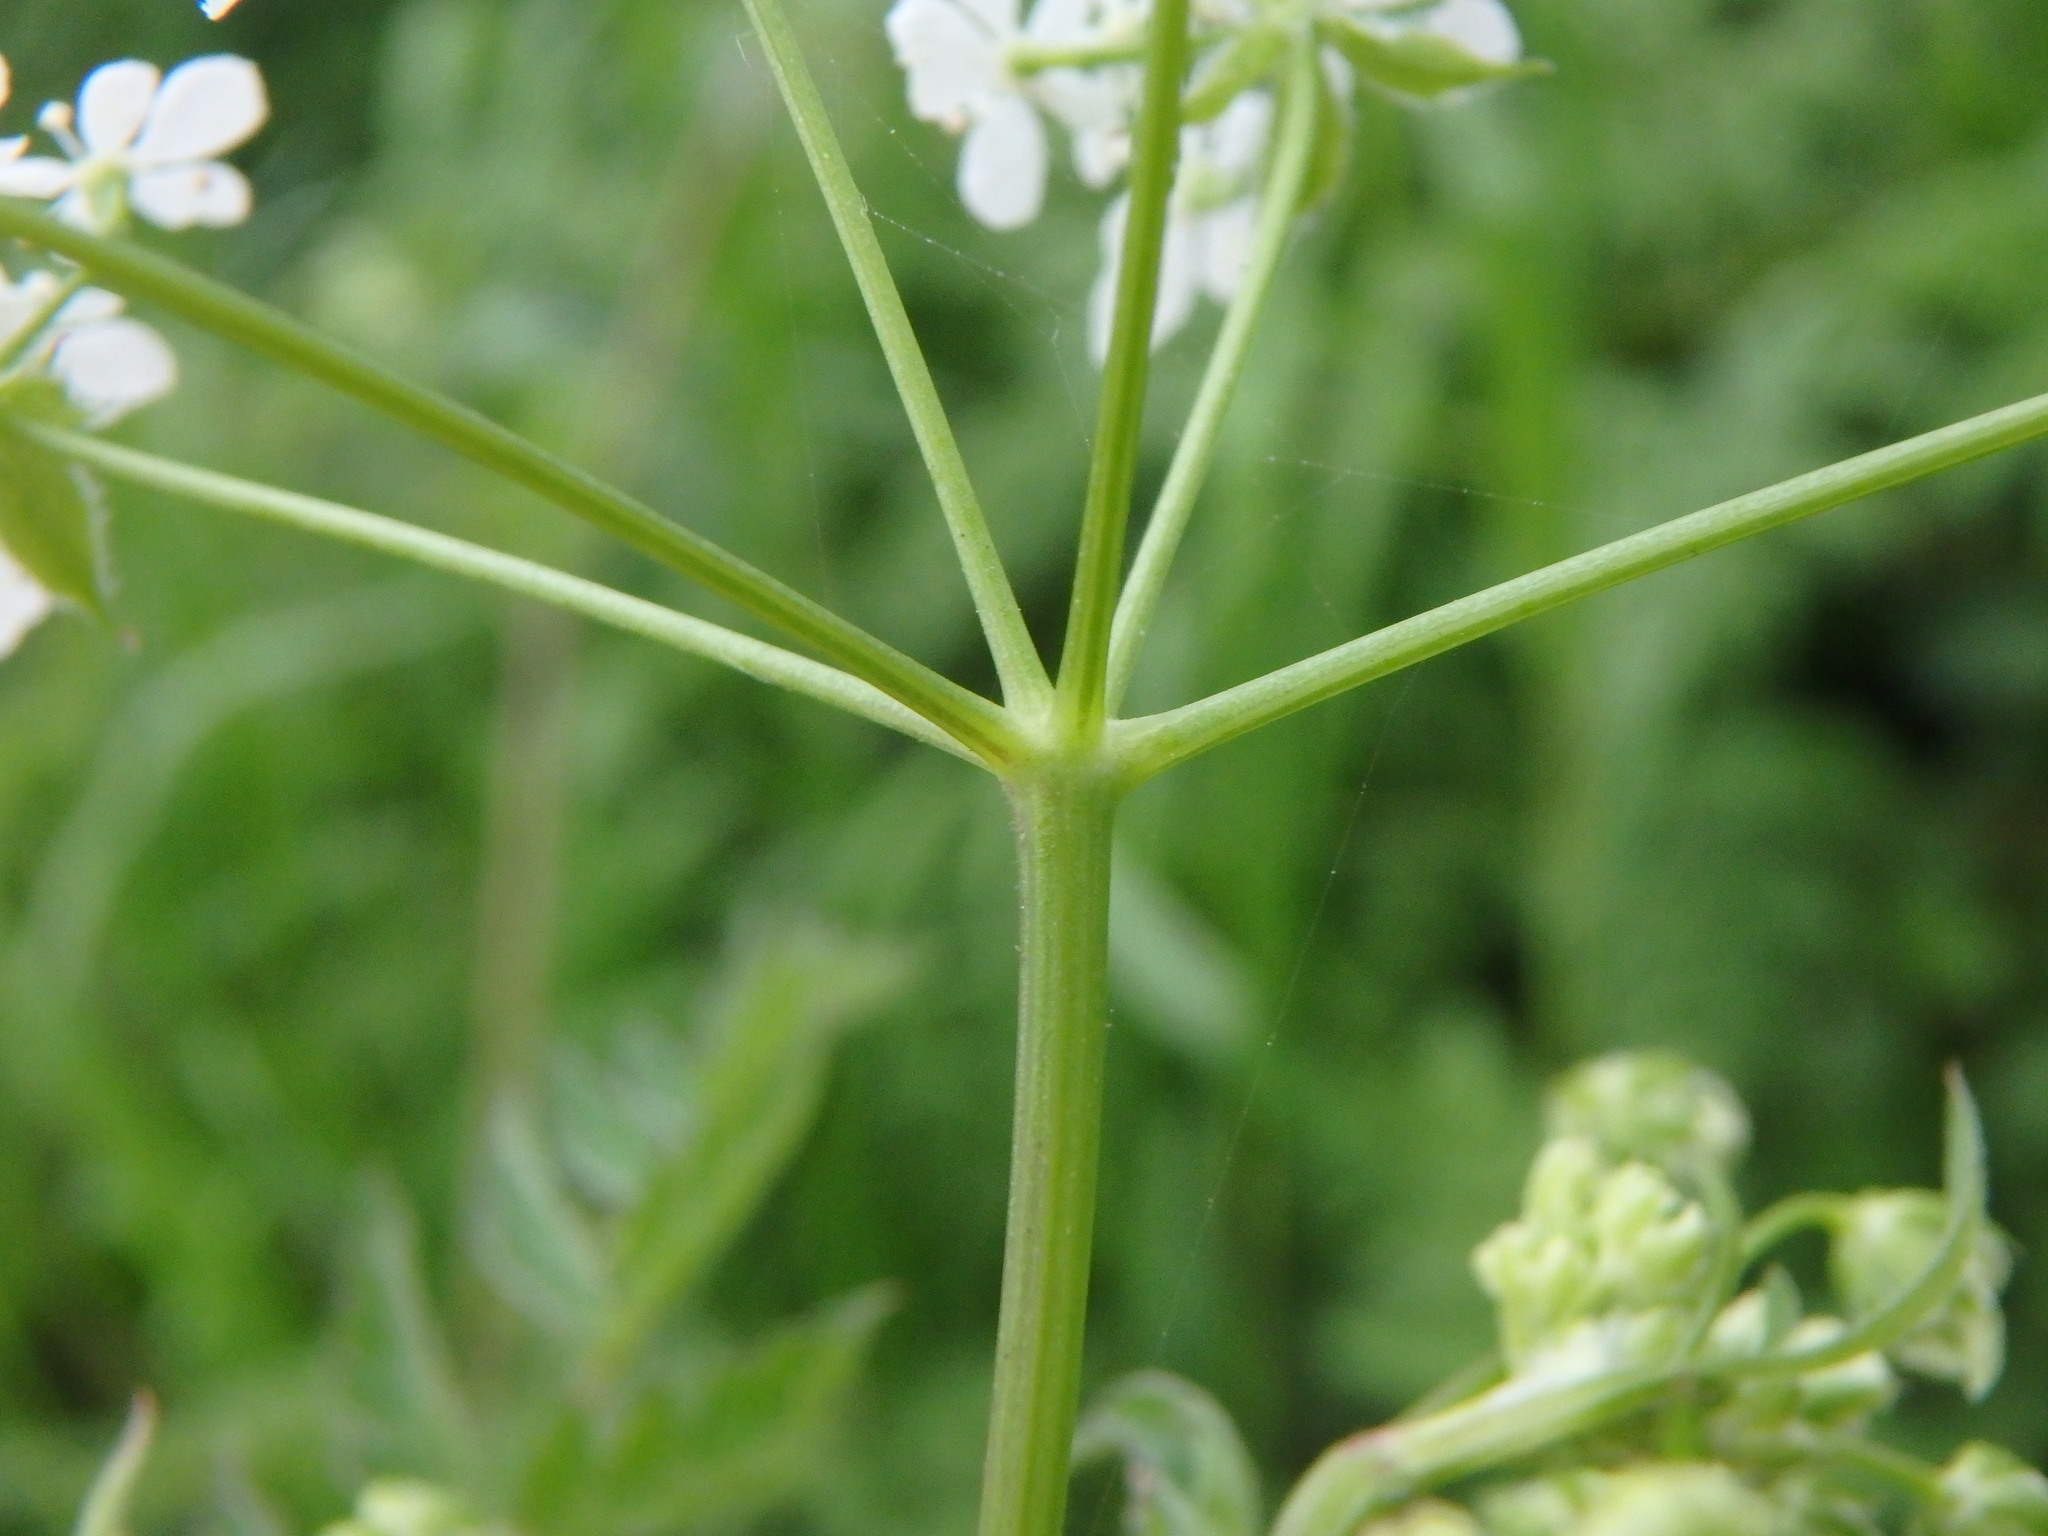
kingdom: Plantae
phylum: Tracheophyta
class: Magnoliopsida
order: Apiales
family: Apiaceae
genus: Anthriscus
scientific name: Anthriscus sylvestris
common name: Cow parsley
